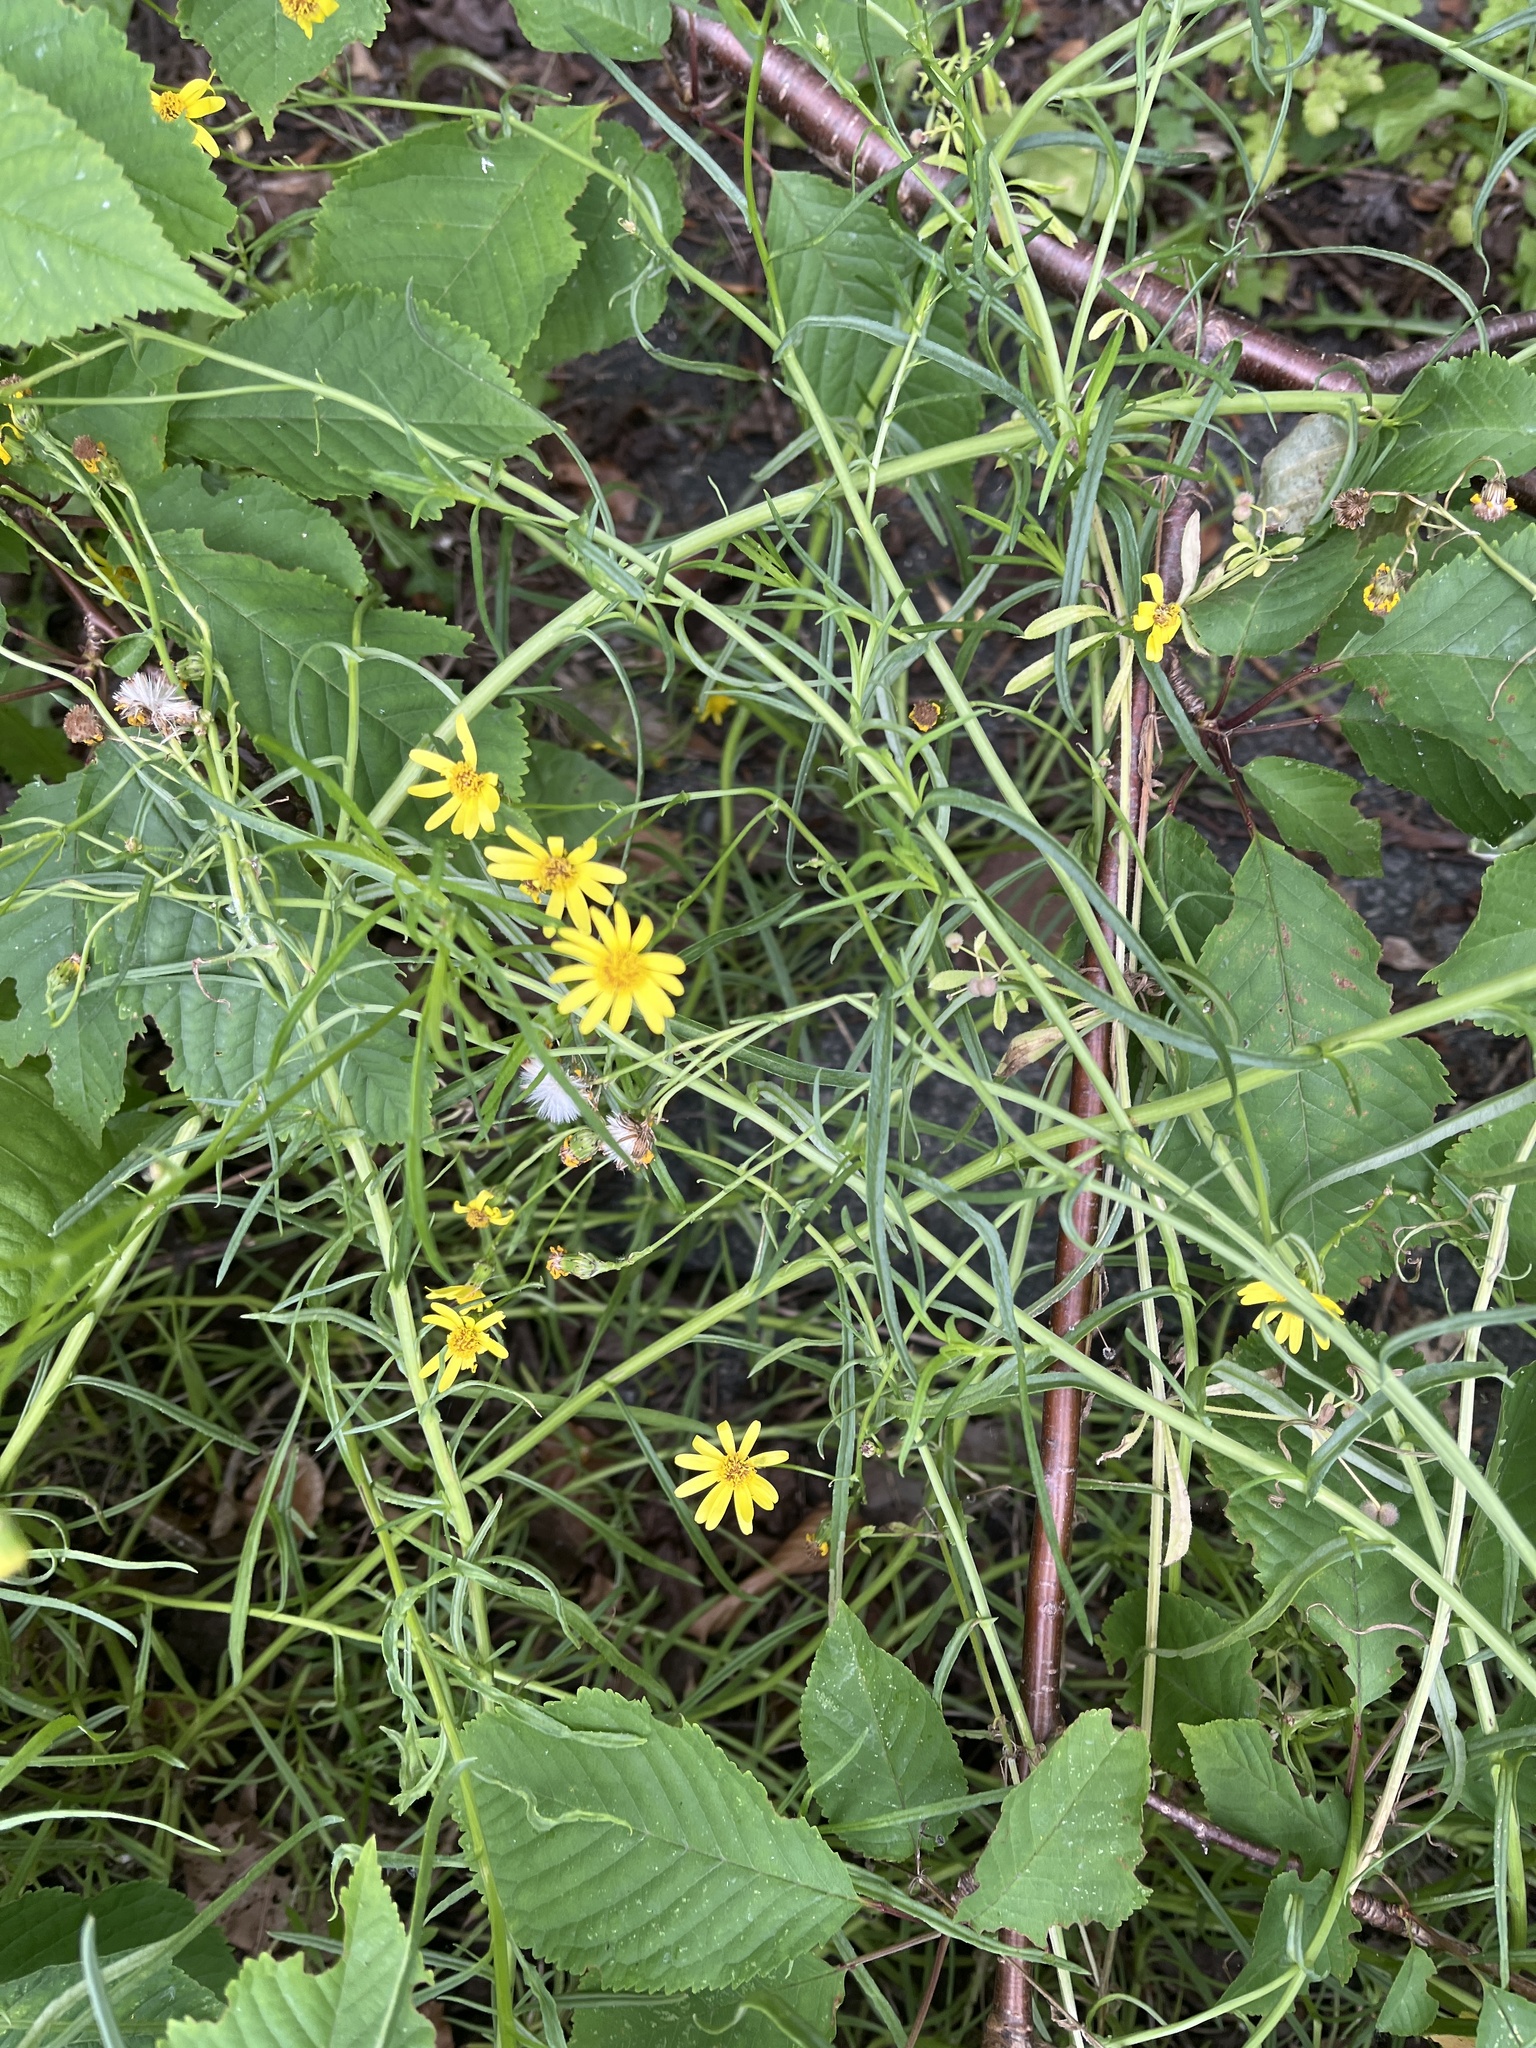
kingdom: Plantae
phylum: Tracheophyta
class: Magnoliopsida
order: Asterales
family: Asteraceae
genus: Senecio
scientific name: Senecio inaequidens
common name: Narrow-leaved ragwort
